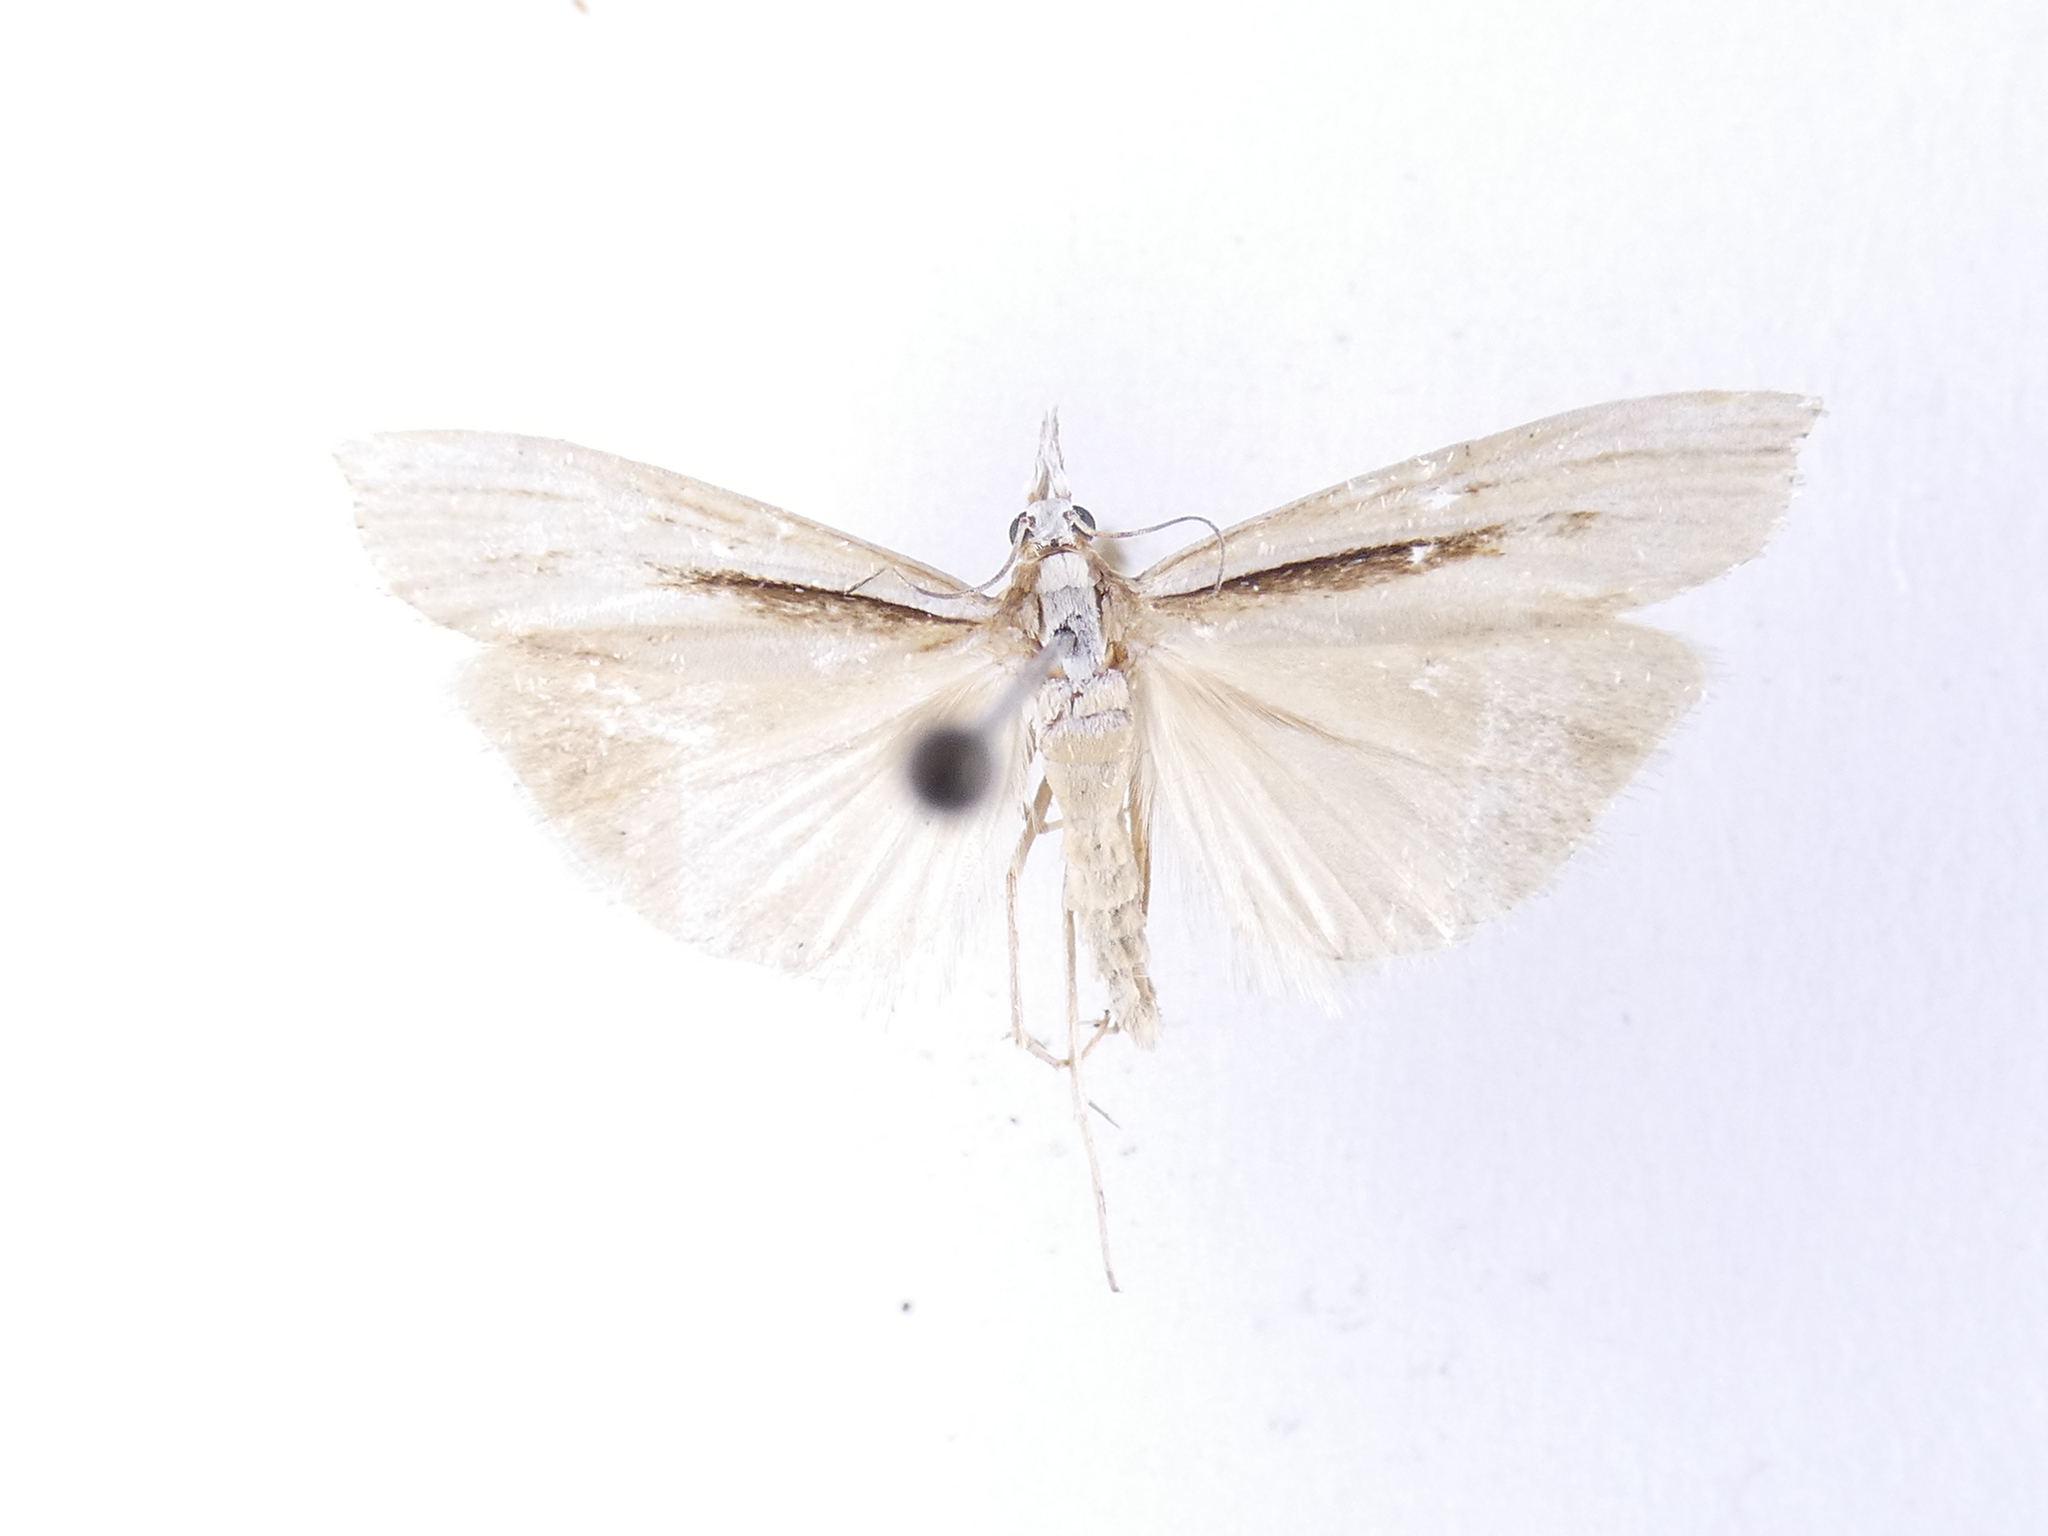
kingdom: Animalia
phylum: Arthropoda
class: Insecta
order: Lepidoptera
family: Crambidae
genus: Orocrambus
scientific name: Orocrambus ramosellus
